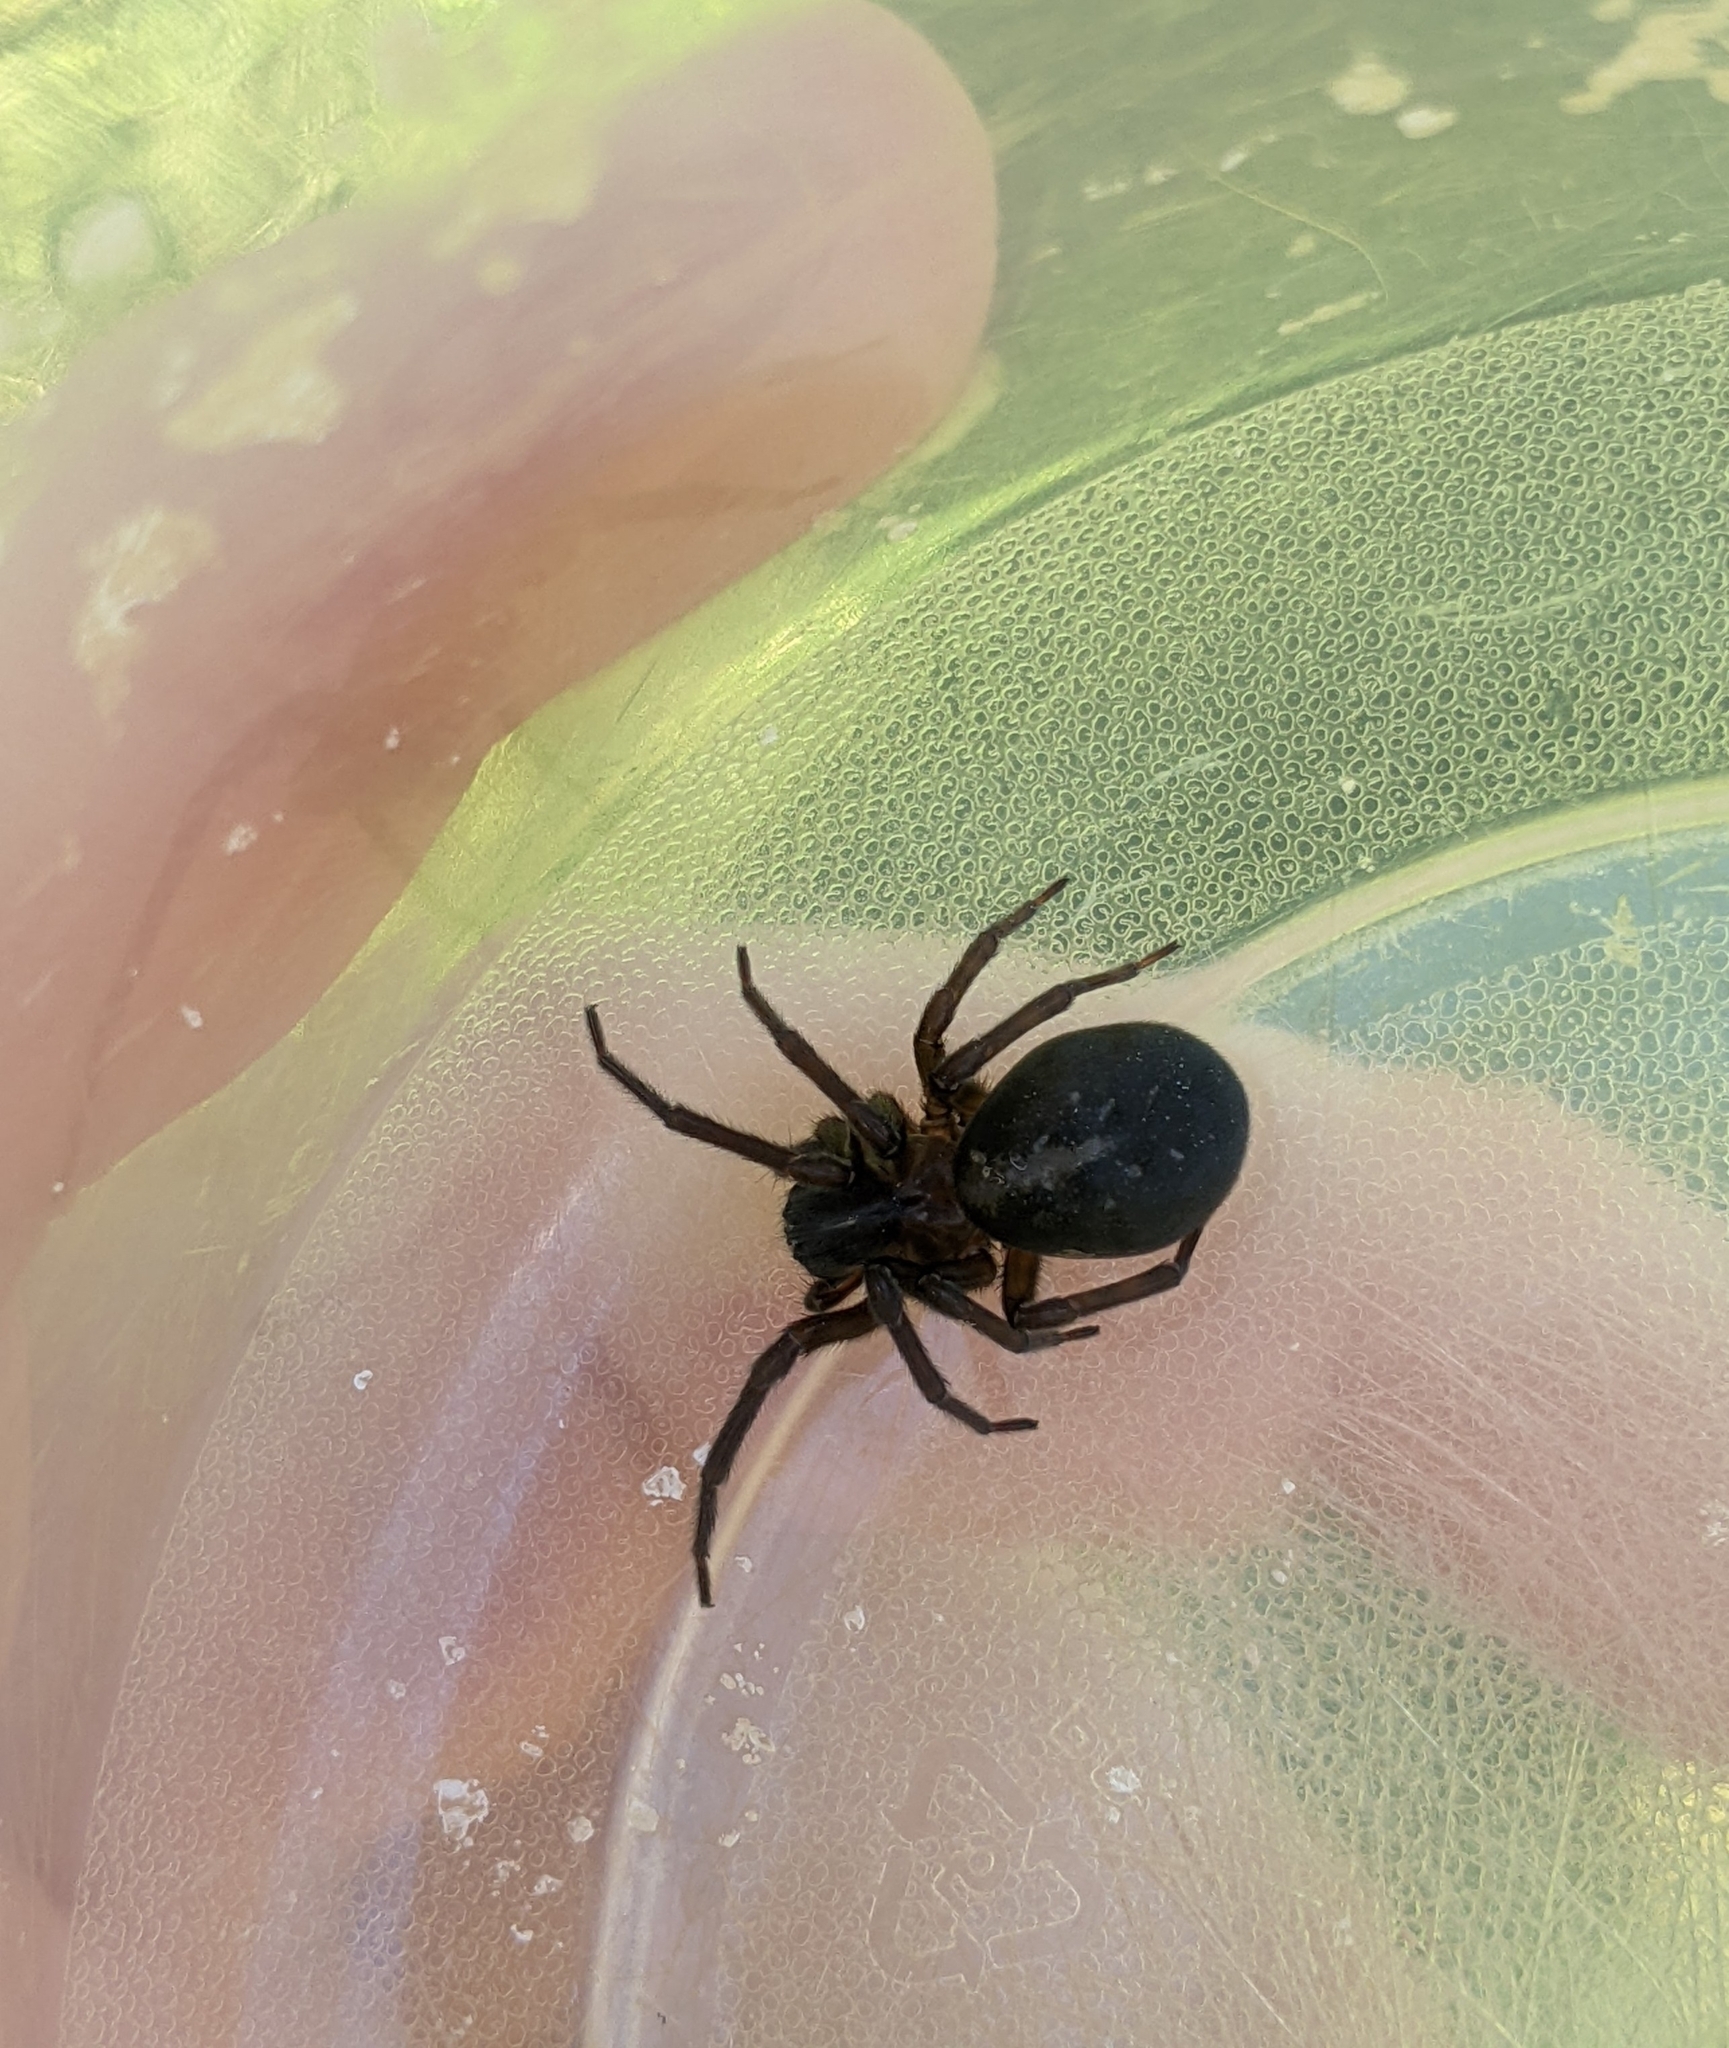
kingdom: Animalia
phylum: Arthropoda
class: Arachnida
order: Araneae
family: Amaurobiidae
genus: Amaurobius
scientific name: Amaurobius ferox
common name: Black laceweaver
